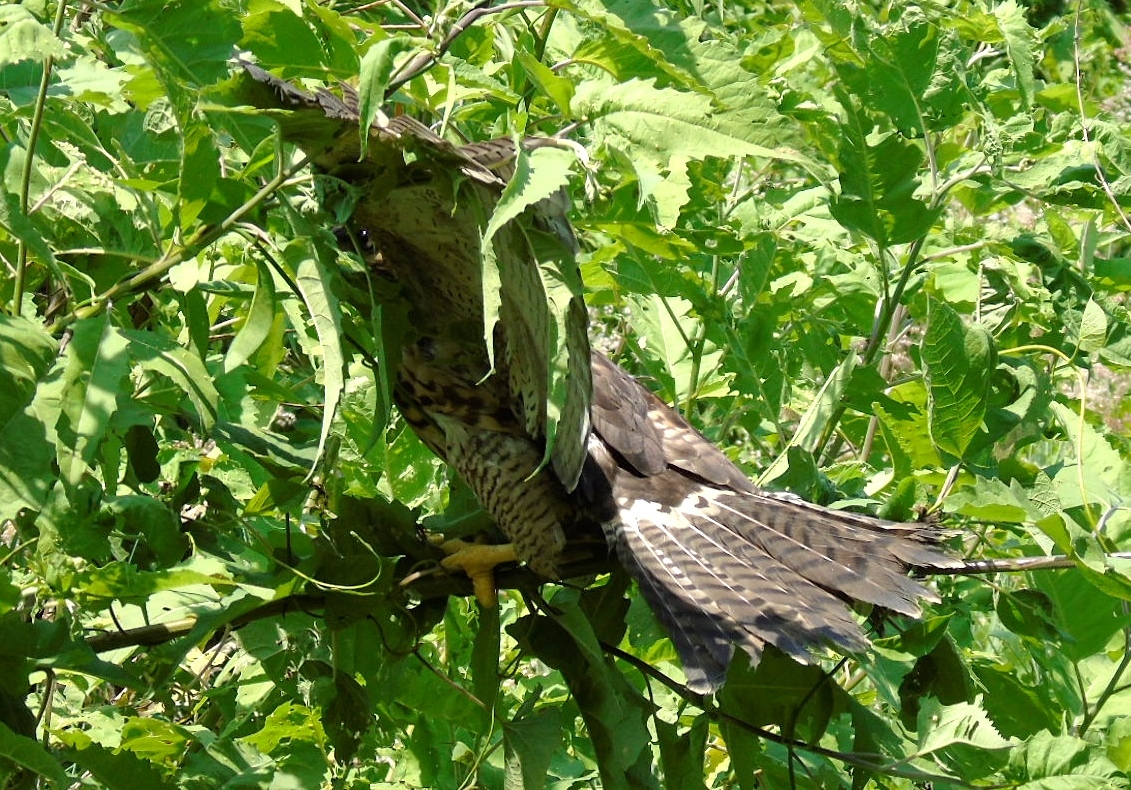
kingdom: Animalia
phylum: Chordata
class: Aves
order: Accipitriformes
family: Accipitridae
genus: Buteo
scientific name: Buteo nitidus
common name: Grey-lined hawk
